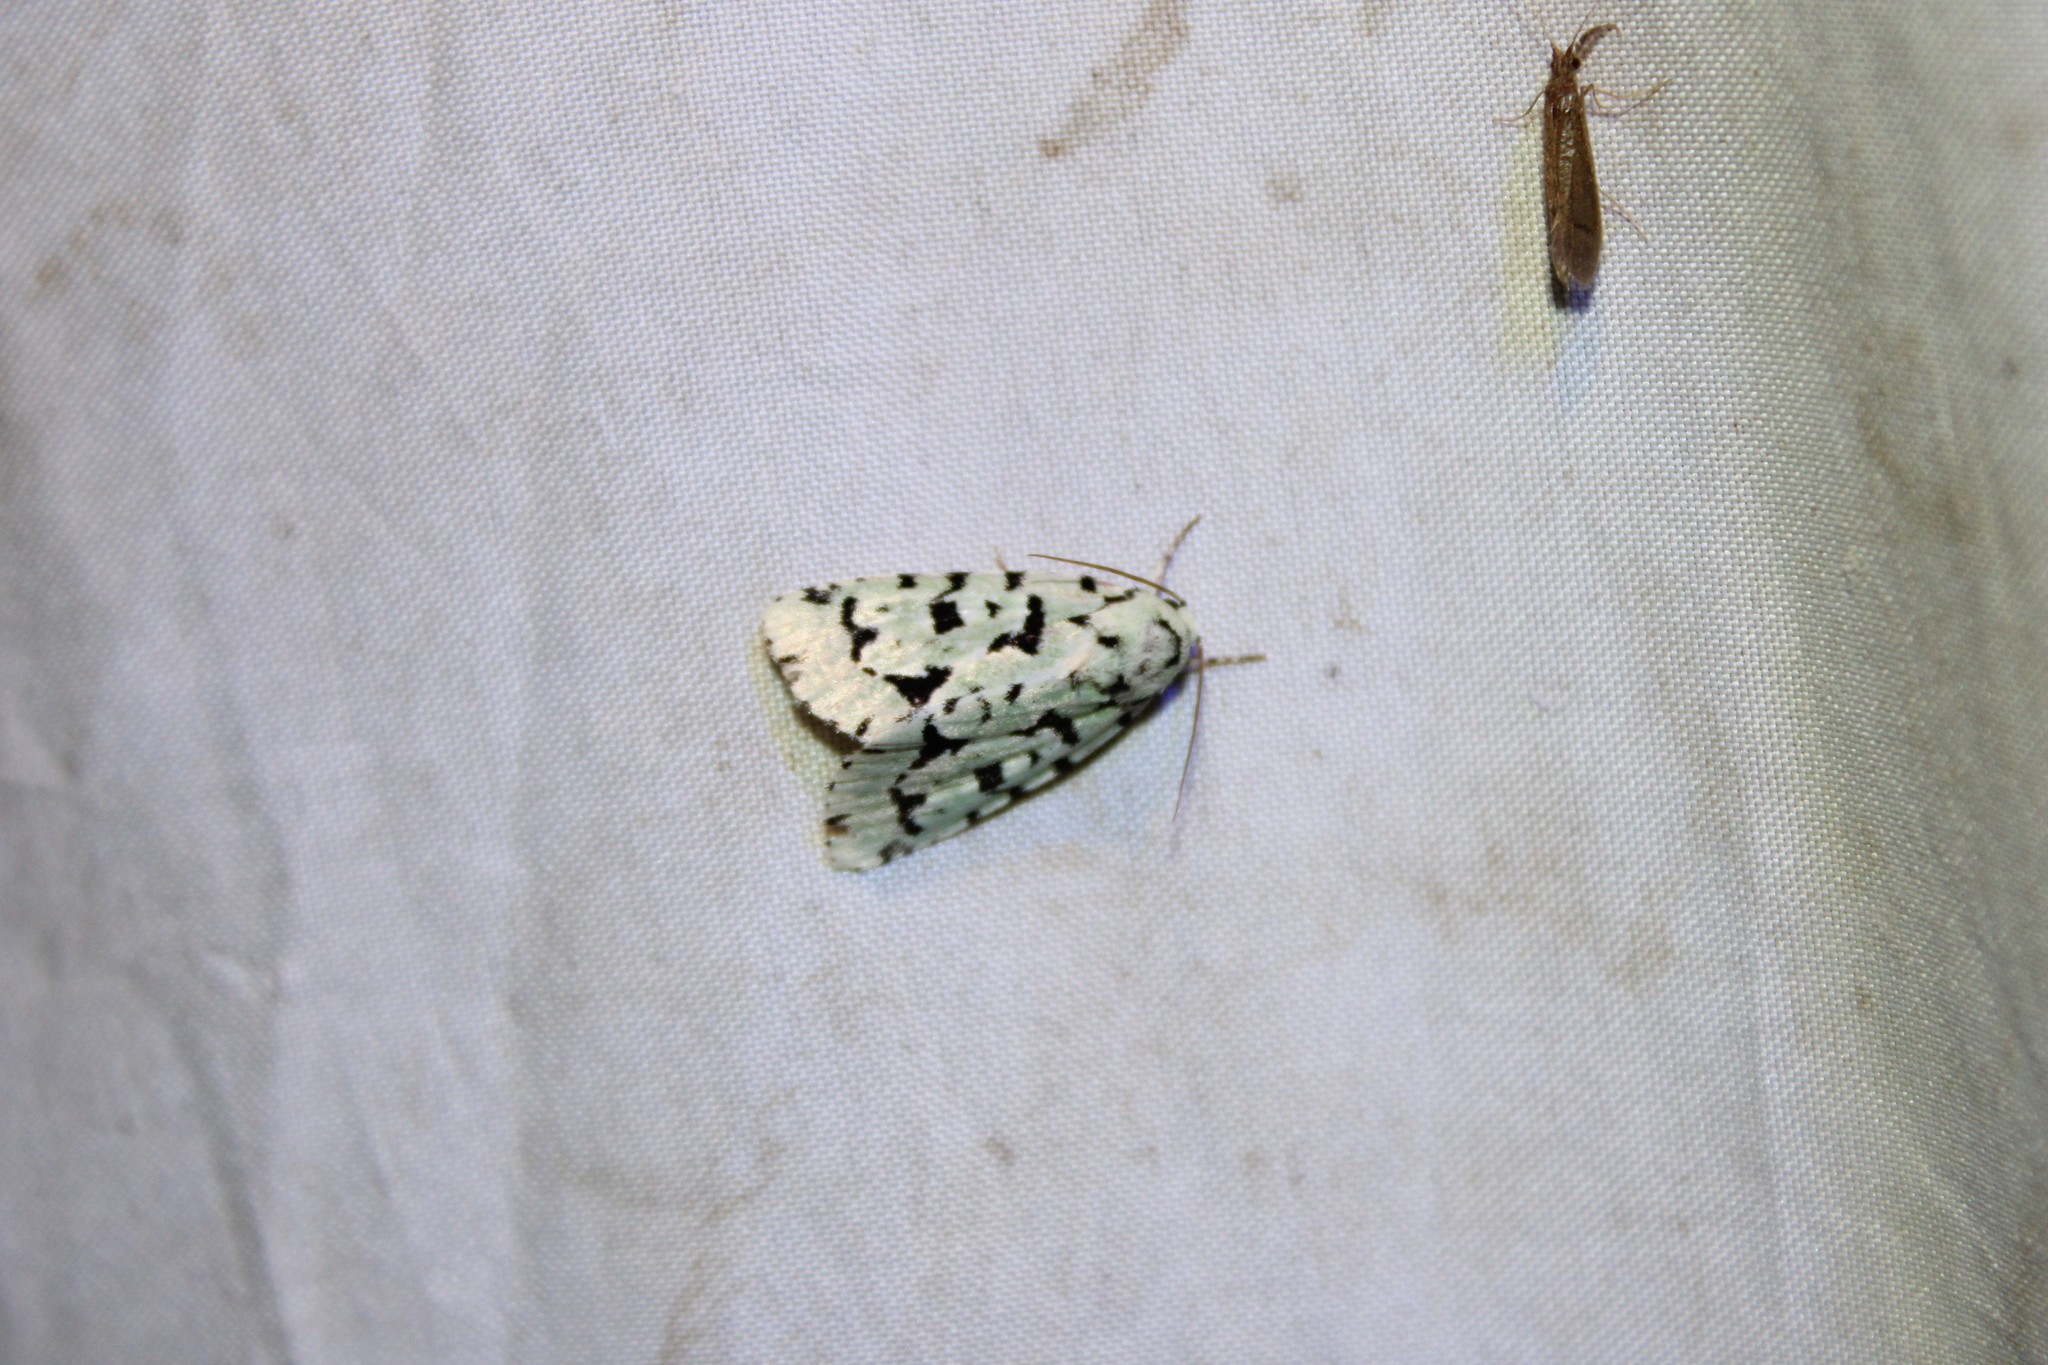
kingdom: Animalia
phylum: Arthropoda
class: Insecta
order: Lepidoptera
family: Noctuidae
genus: Acronicta
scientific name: Acronicta fallax
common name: Green marvel
